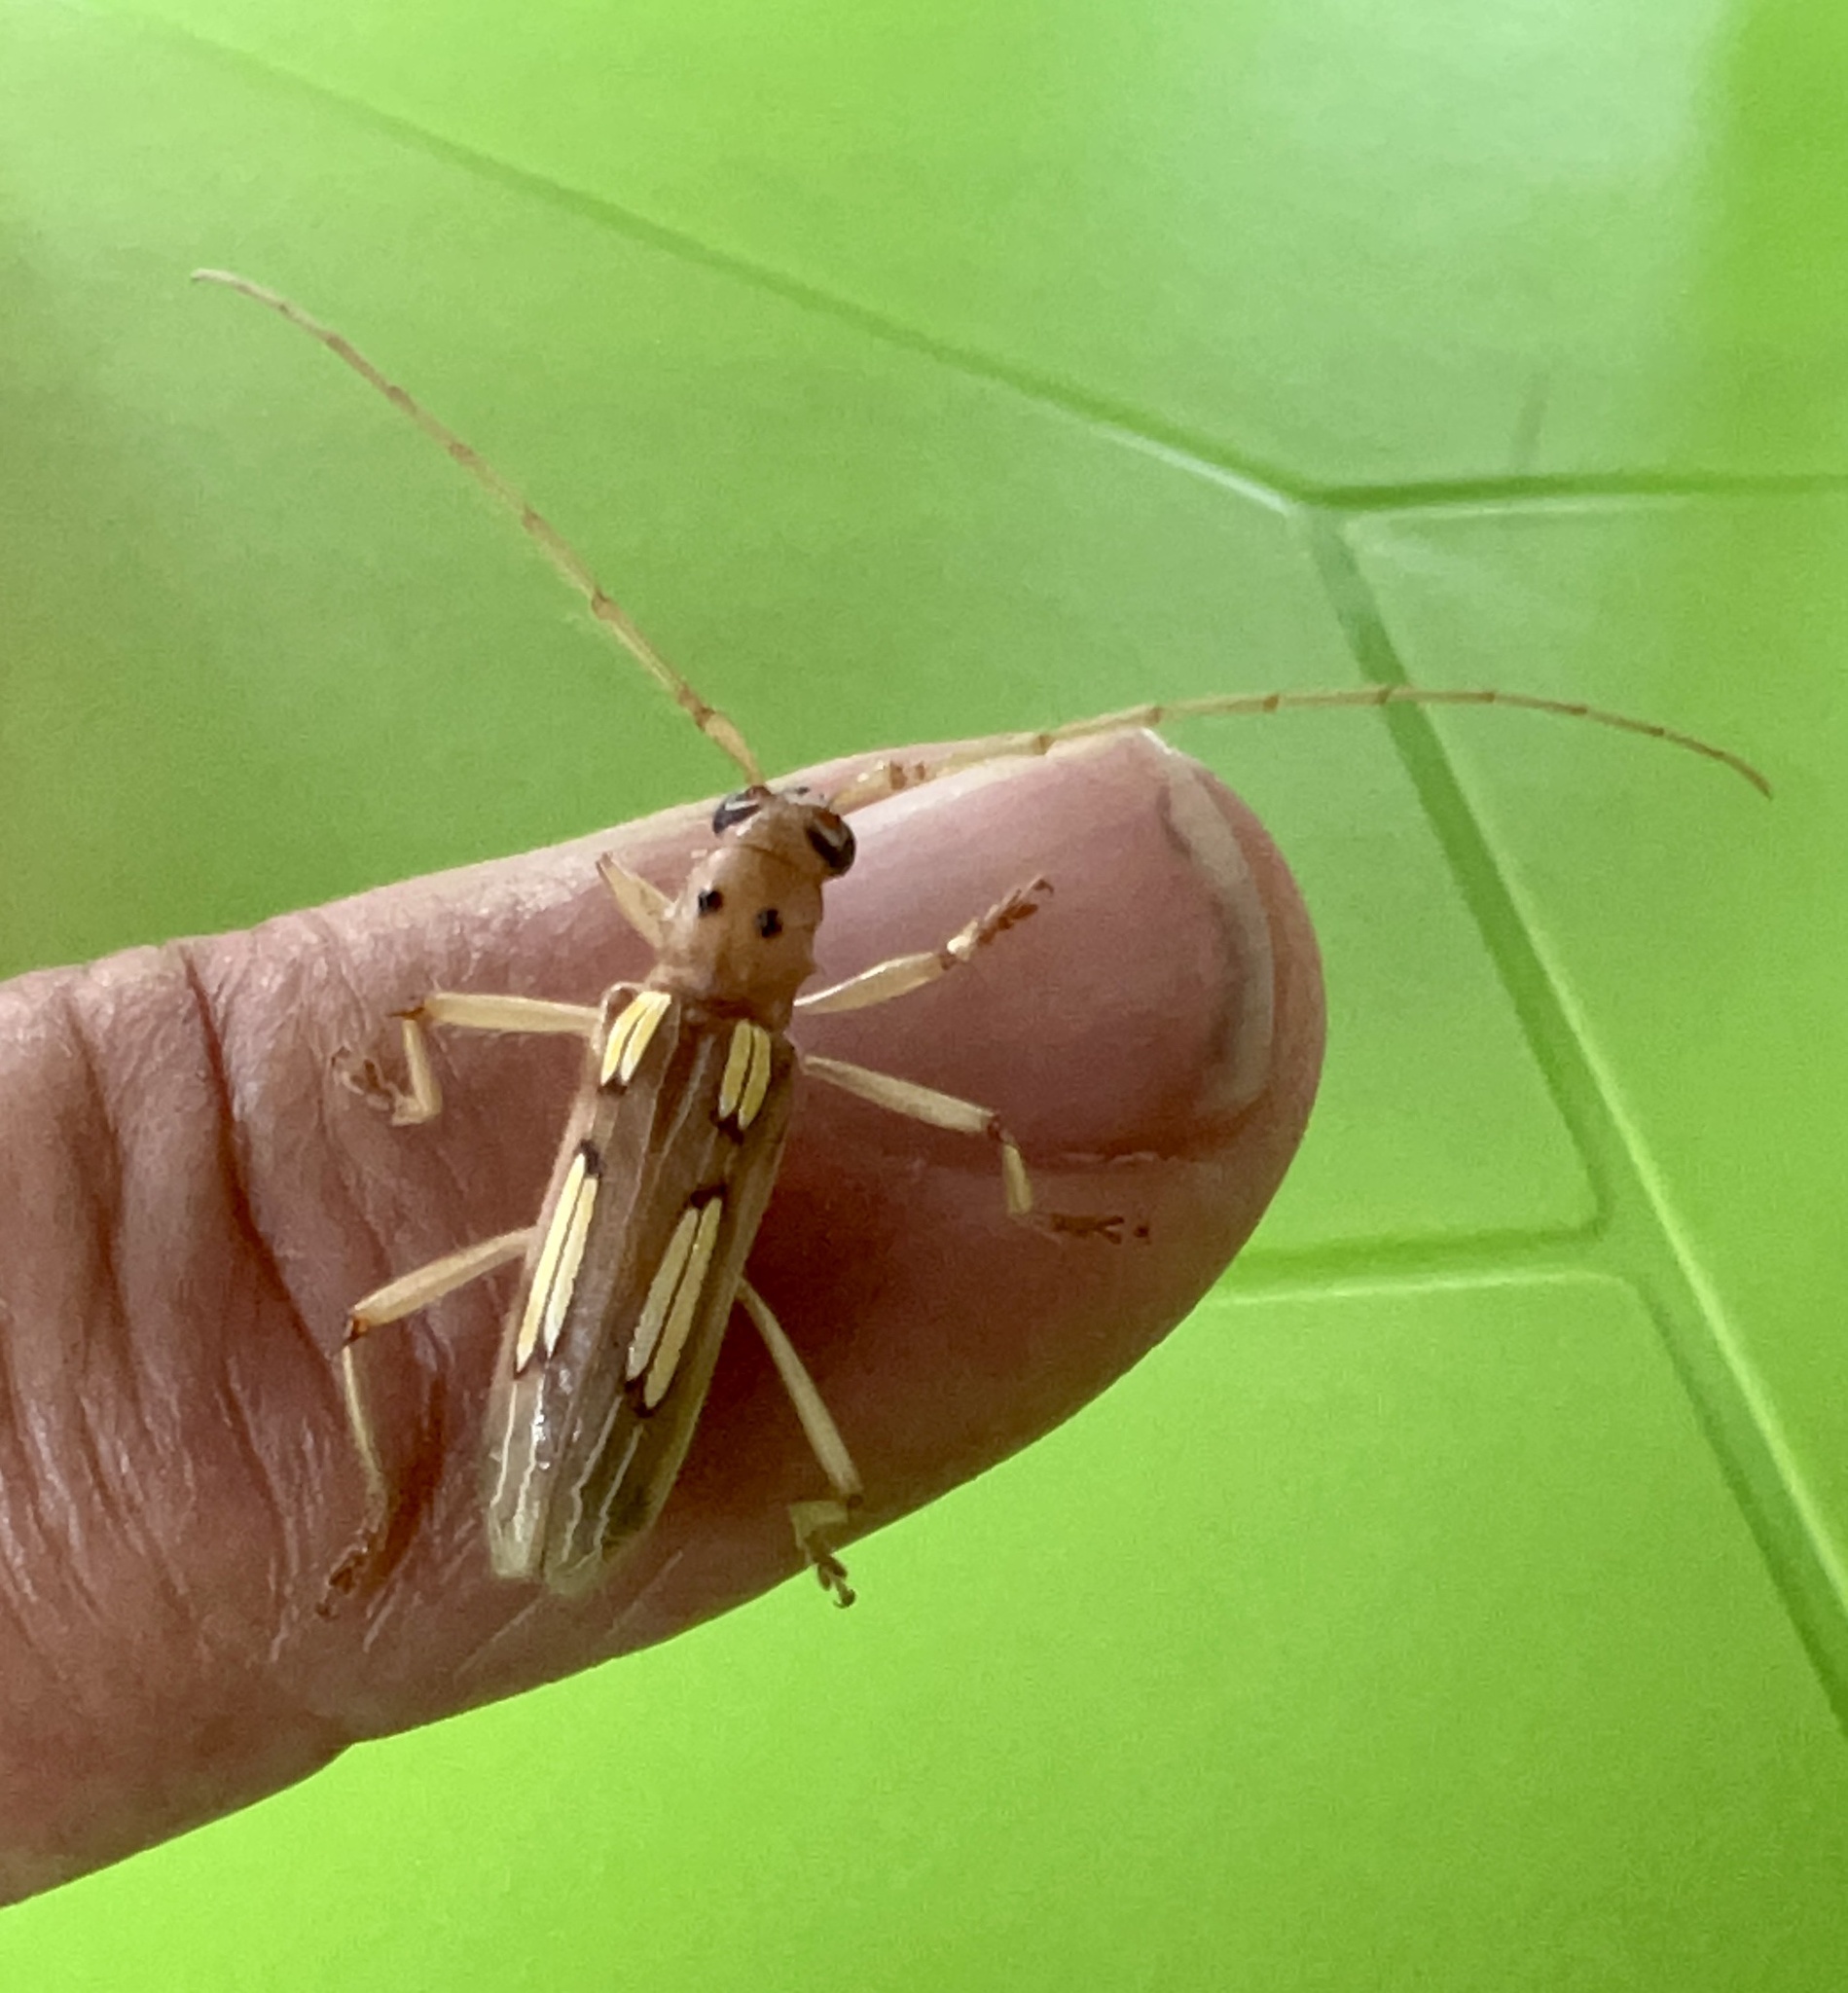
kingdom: Animalia
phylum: Arthropoda
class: Insecta
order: Coleoptera
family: Cerambycidae
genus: Beraba
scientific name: Beraba piriana
